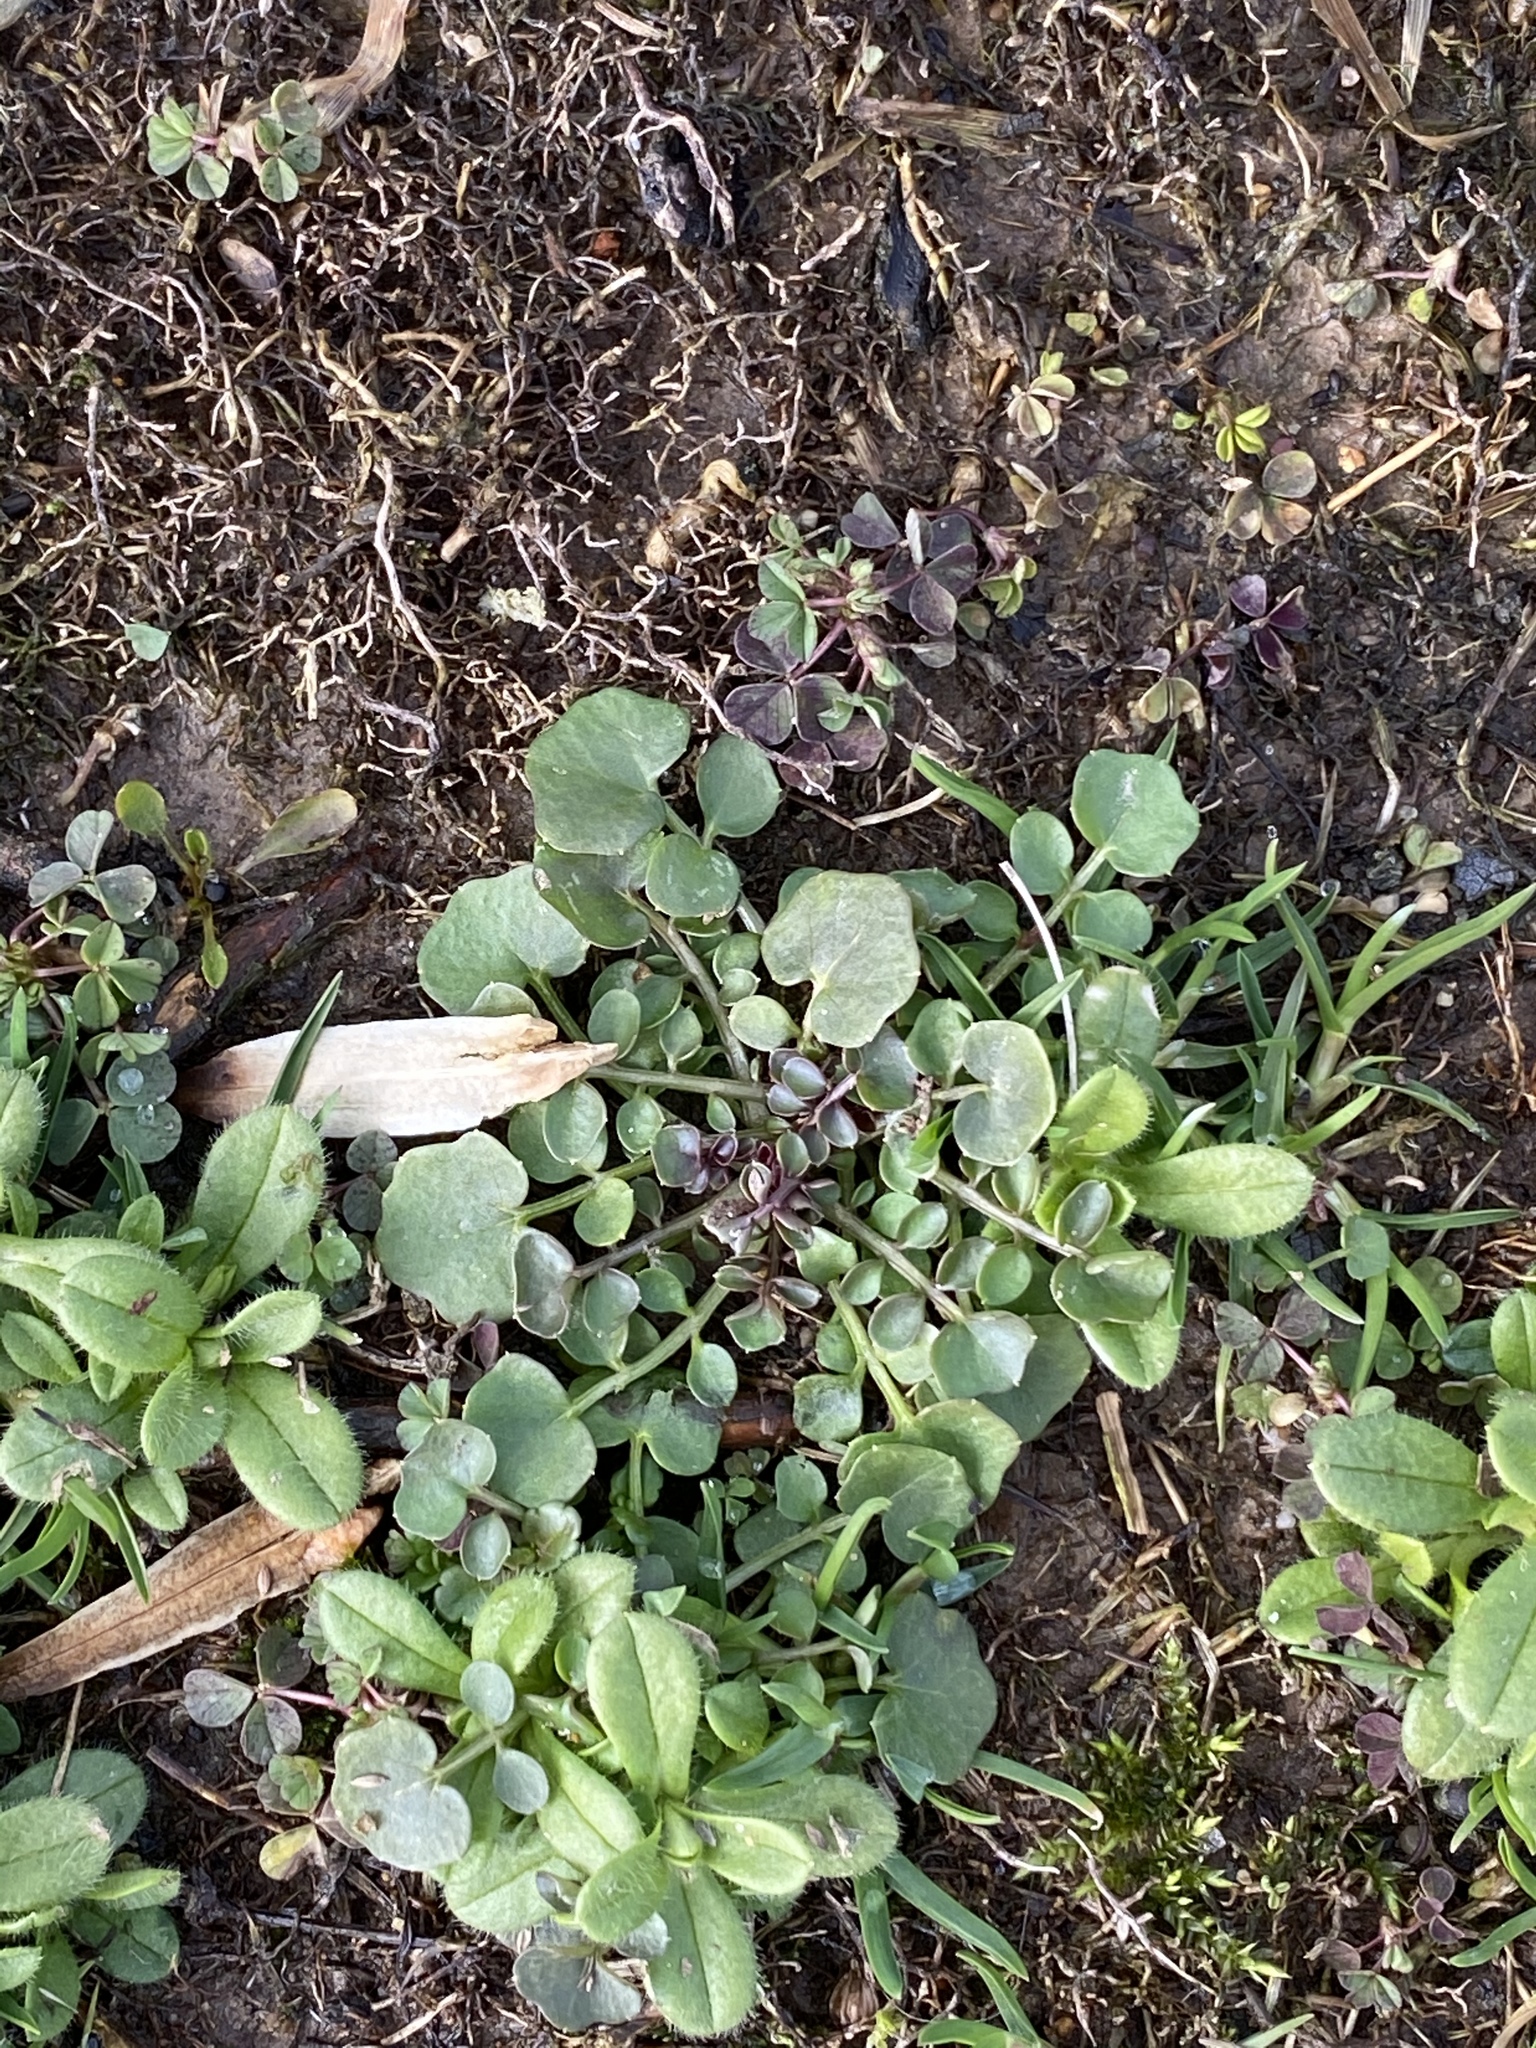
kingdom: Plantae
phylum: Tracheophyta
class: Magnoliopsida
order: Brassicales
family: Brassicaceae
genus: Cardamine
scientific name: Cardamine hirsuta
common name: Hairy bittercress
